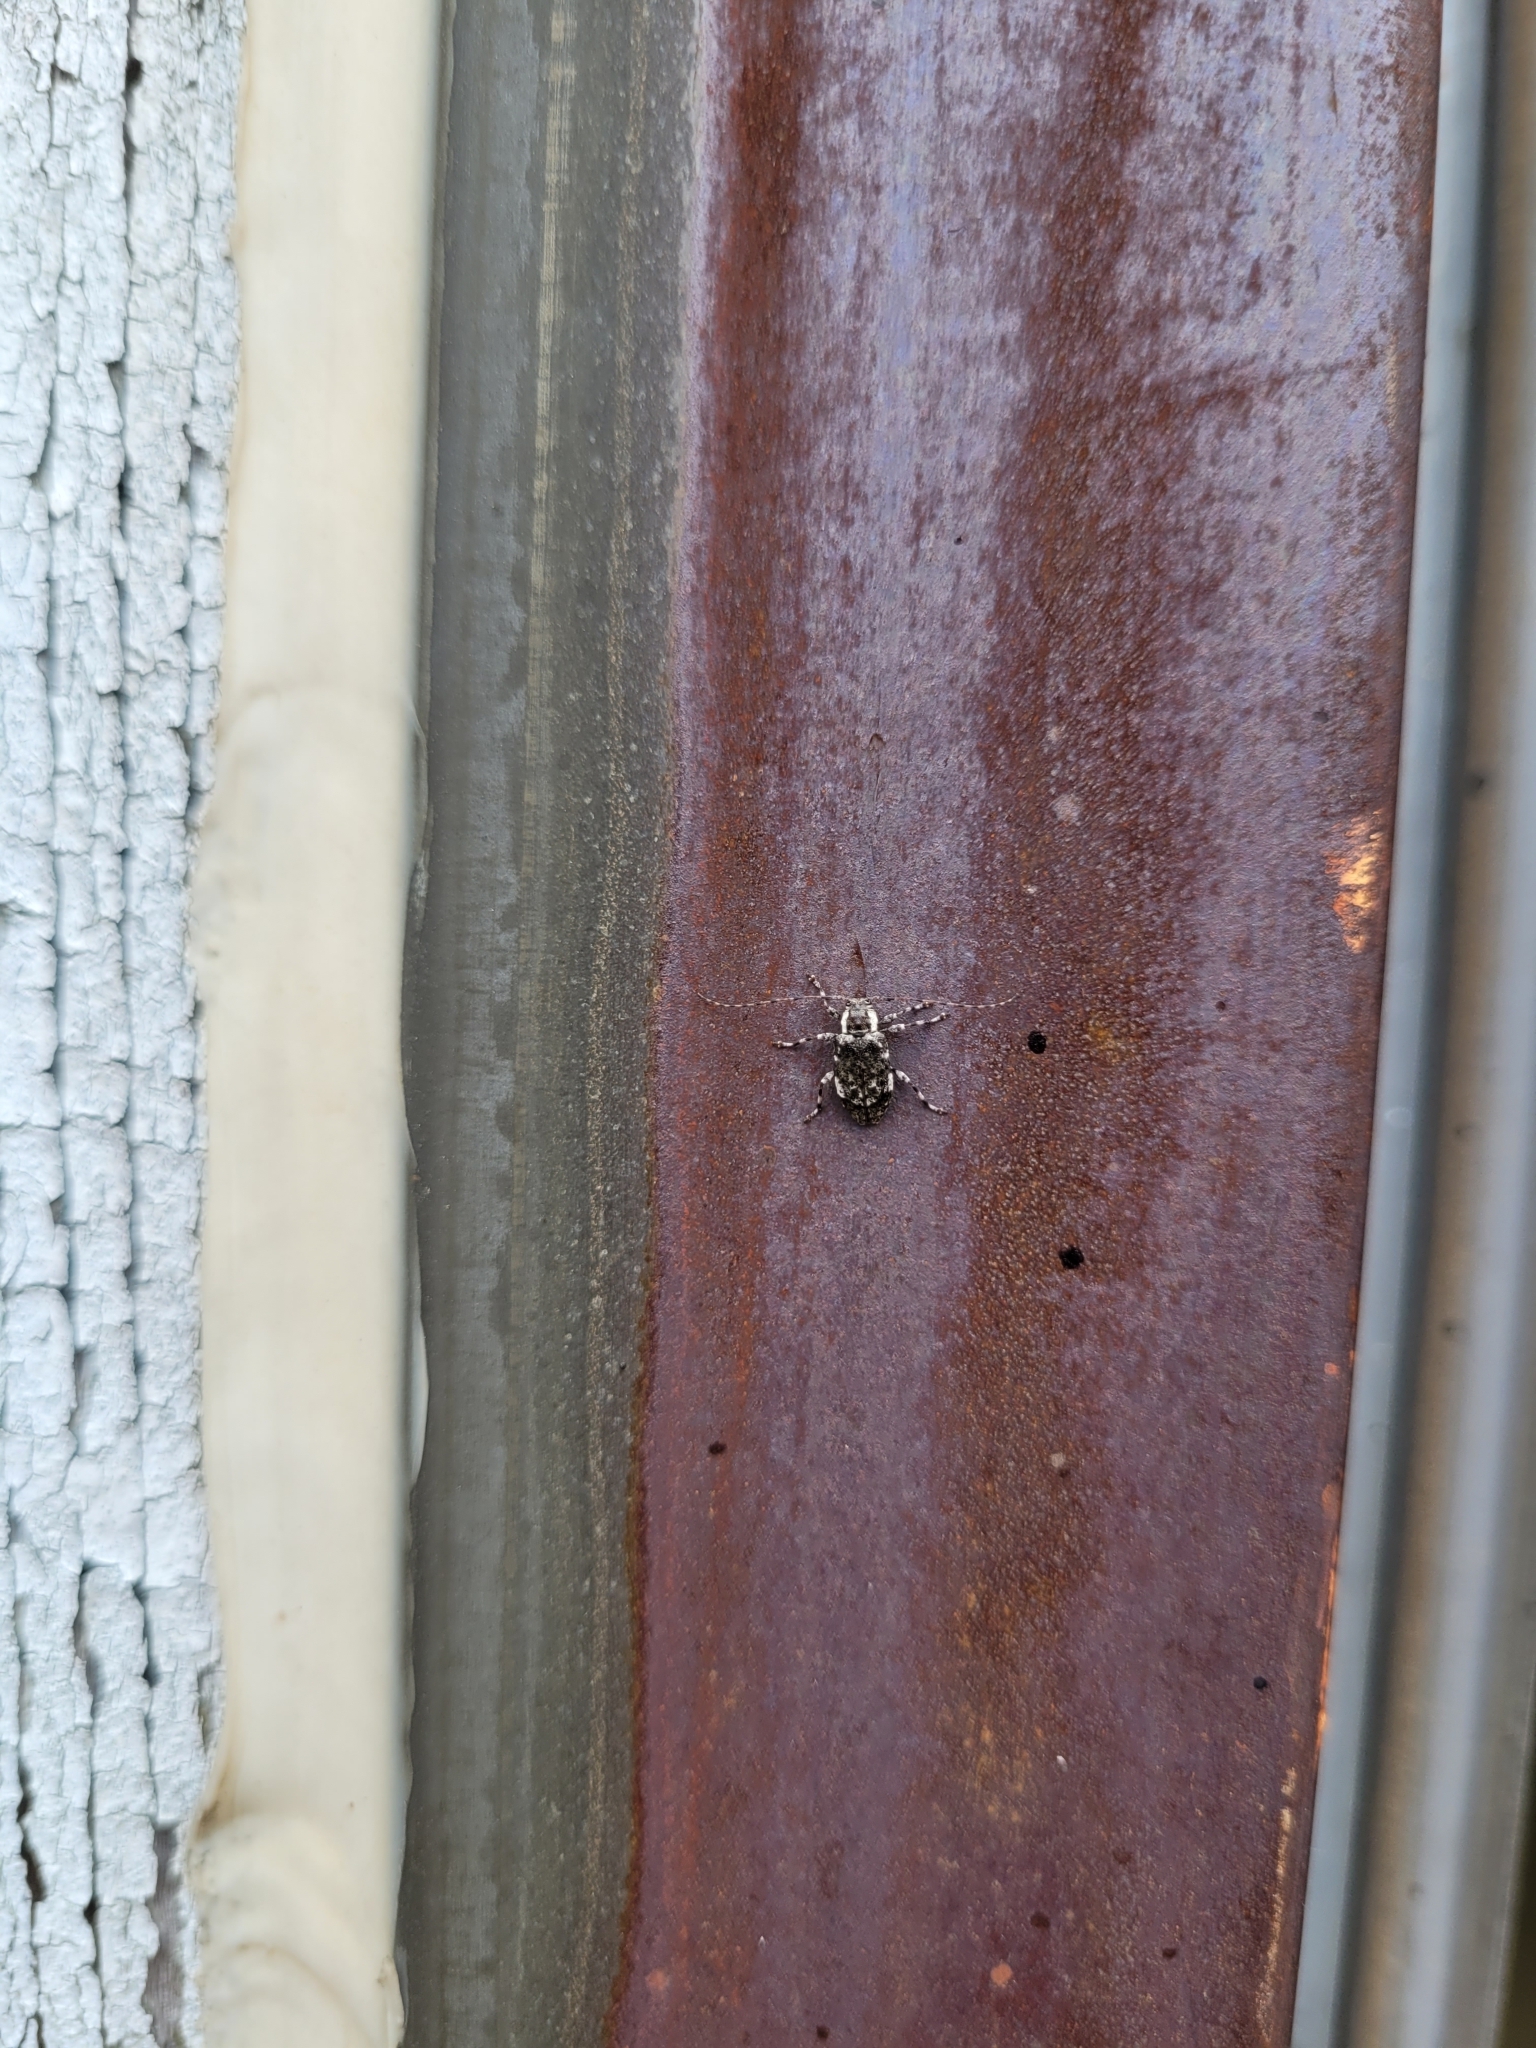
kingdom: Animalia
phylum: Arthropoda
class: Insecta
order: Coleoptera
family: Cerambycidae
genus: Astylopsis
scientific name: Astylopsis macula
